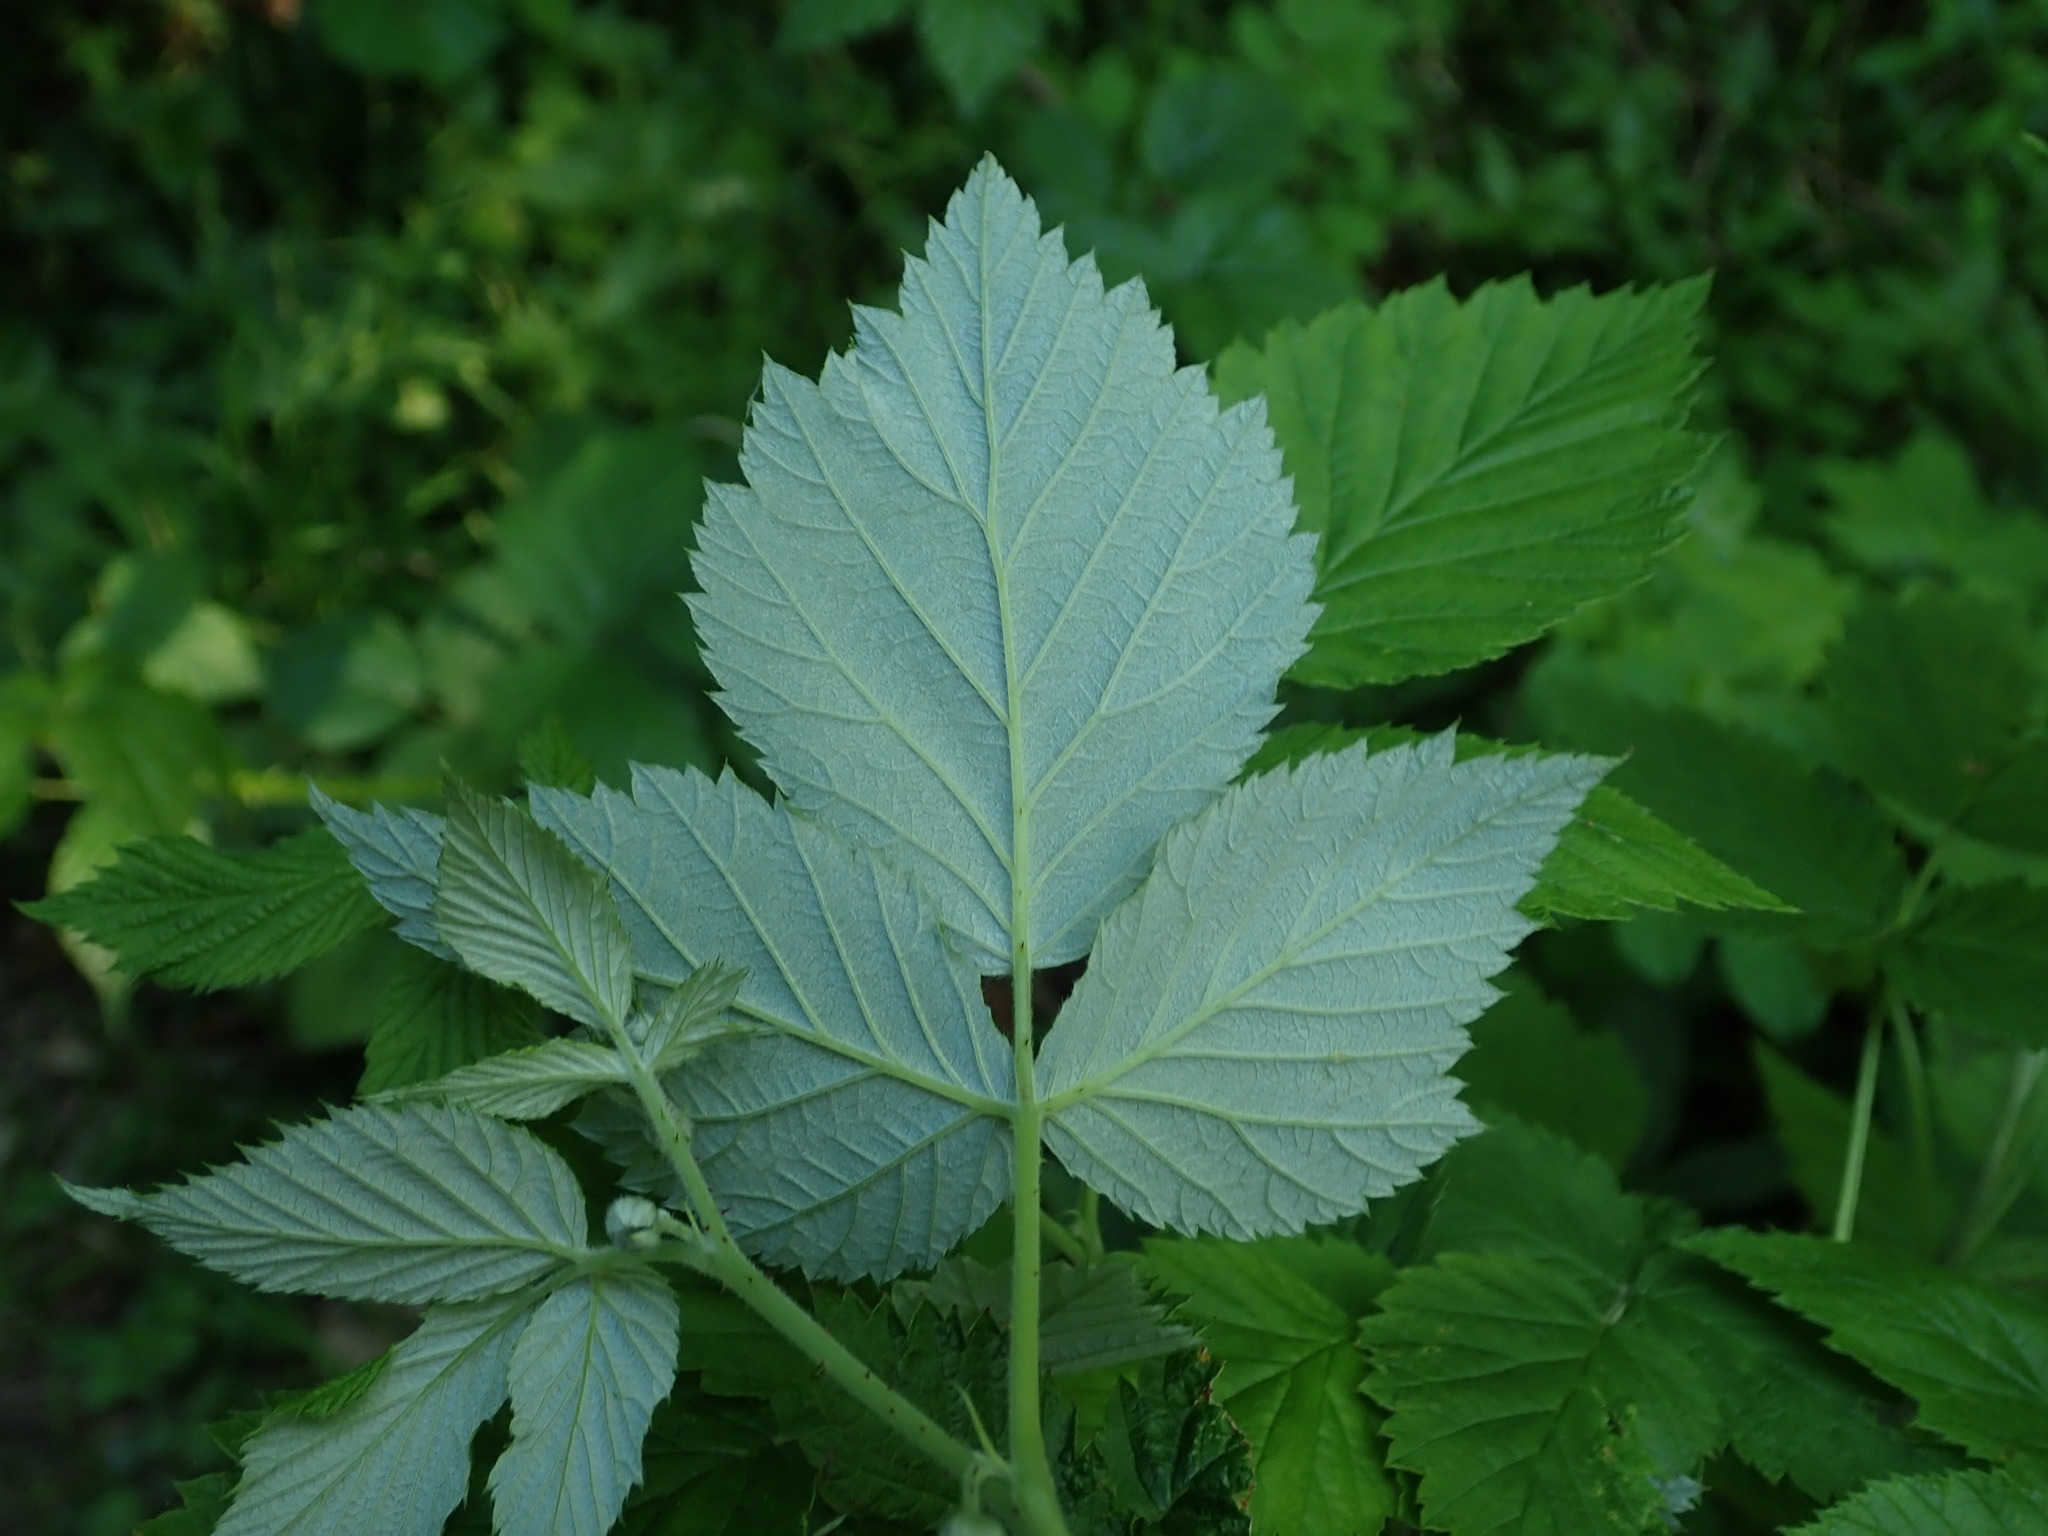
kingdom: Plantae
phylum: Tracheophyta
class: Magnoliopsida
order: Rosales
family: Rosaceae
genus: Rubus
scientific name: Rubus idaeus
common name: Raspberry
